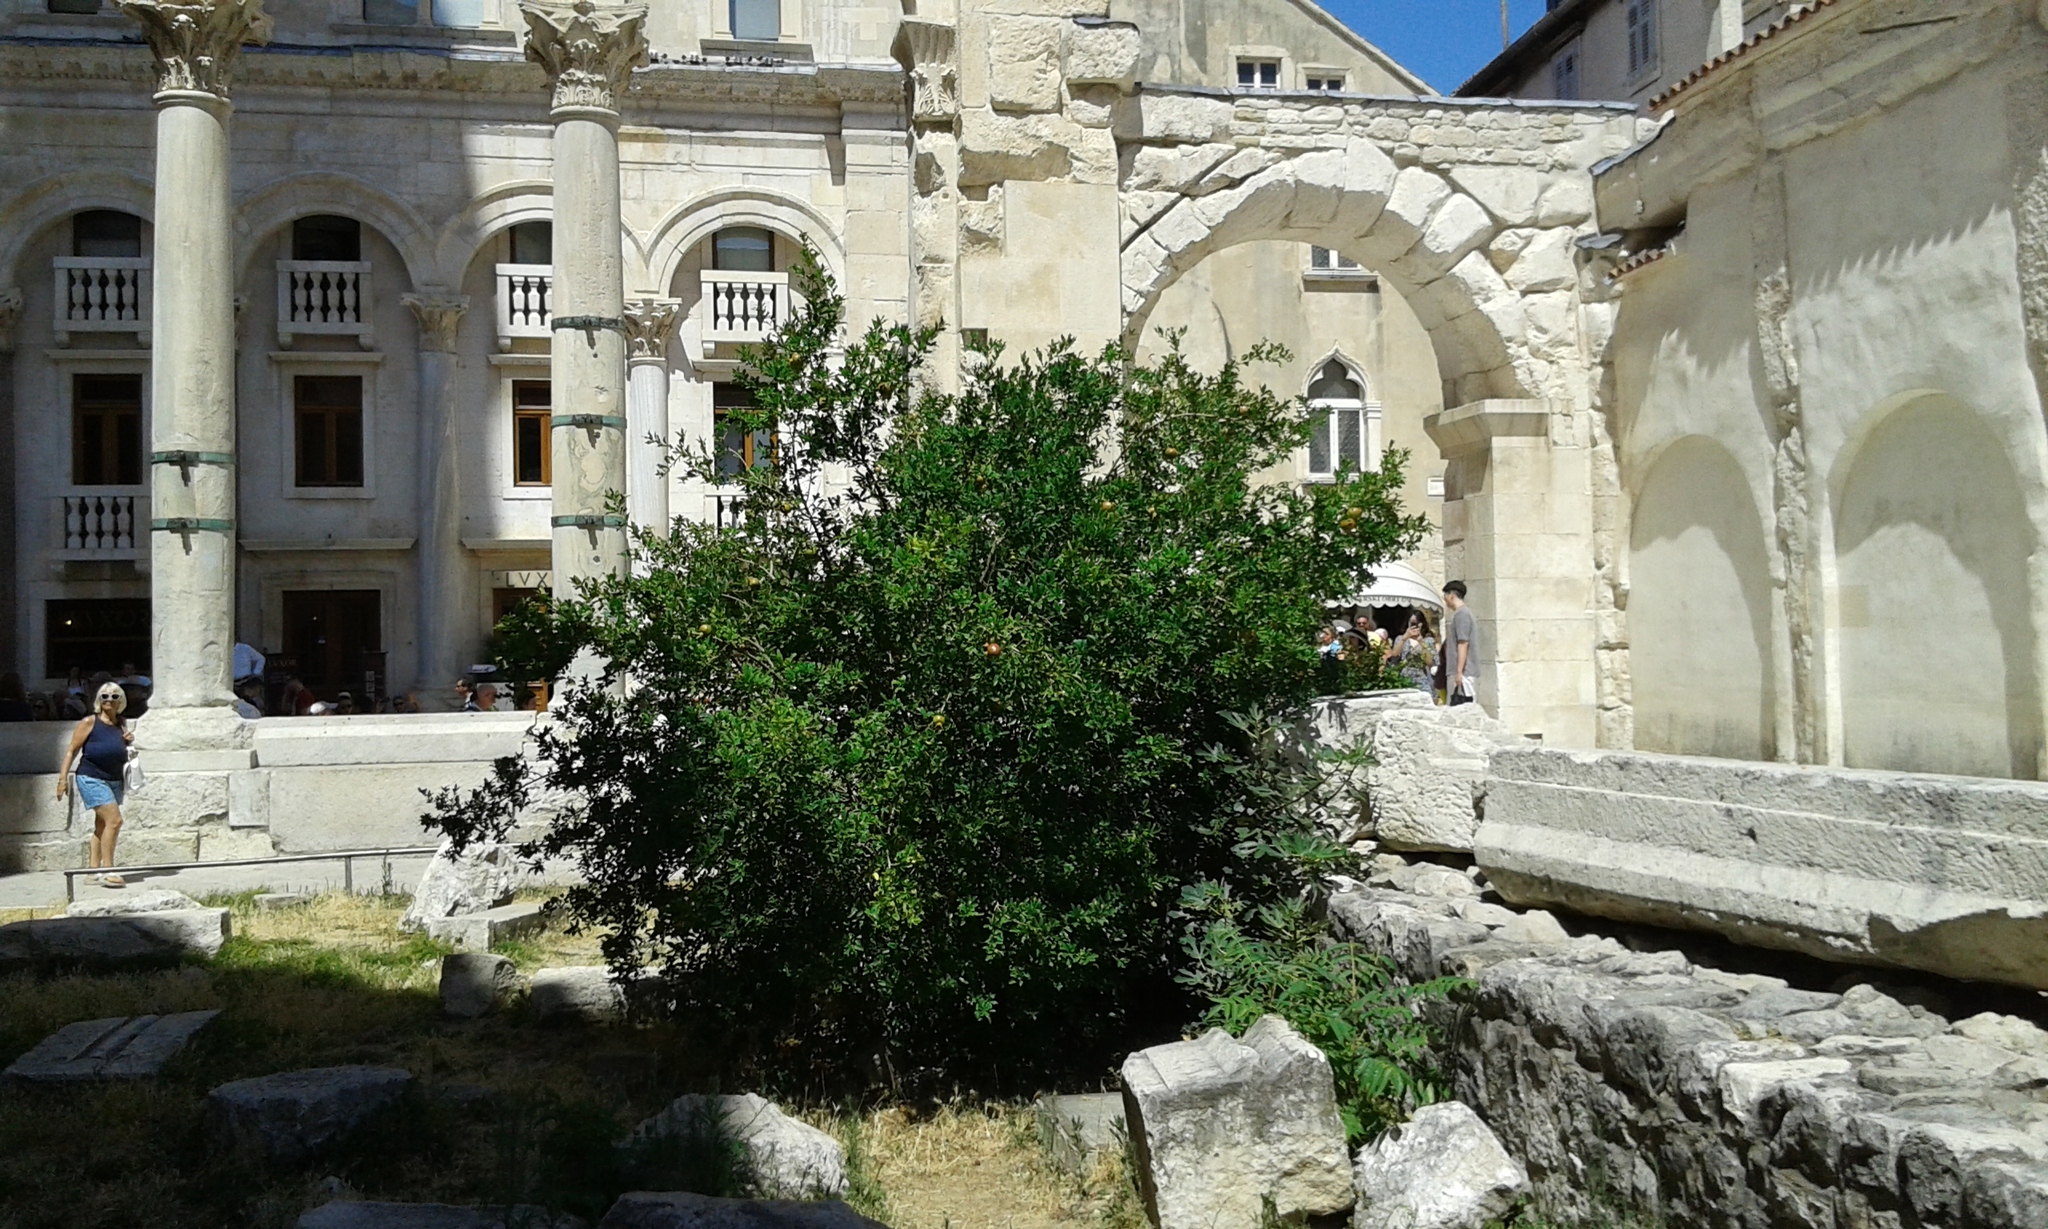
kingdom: Plantae
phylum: Tracheophyta
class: Magnoliopsida
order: Myrtales
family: Lythraceae
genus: Punica
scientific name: Punica granatum
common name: Pomegranate
